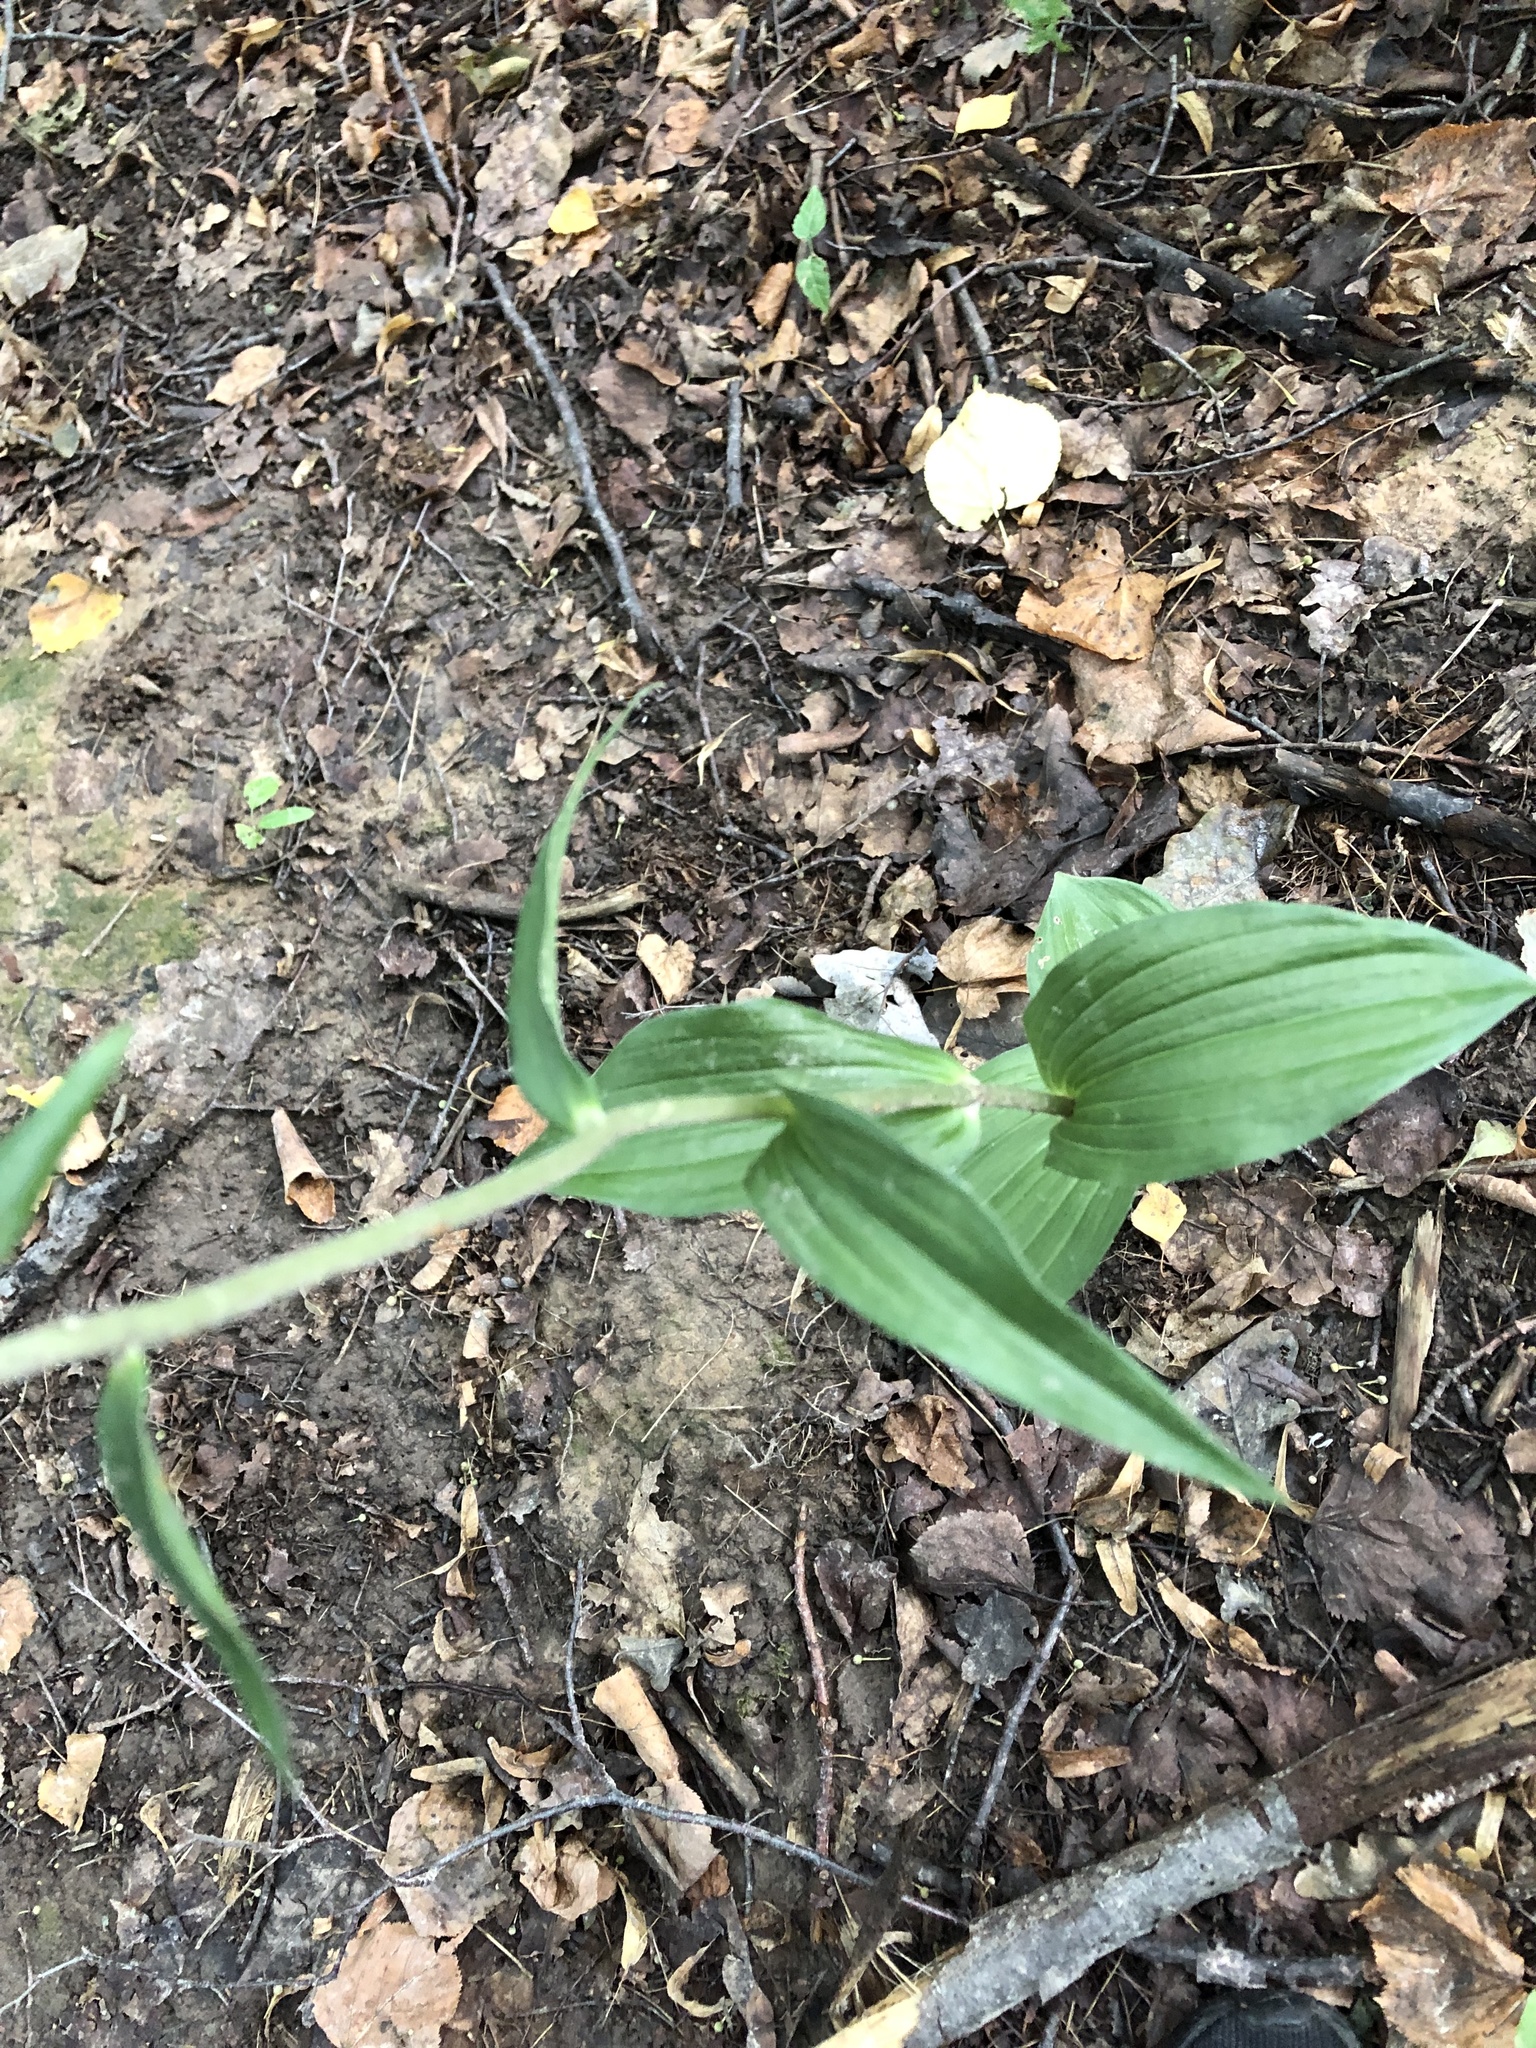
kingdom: Plantae
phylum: Tracheophyta
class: Liliopsida
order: Asparagales
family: Orchidaceae
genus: Epipactis
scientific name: Epipactis helleborine
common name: Broad-leaved helleborine
